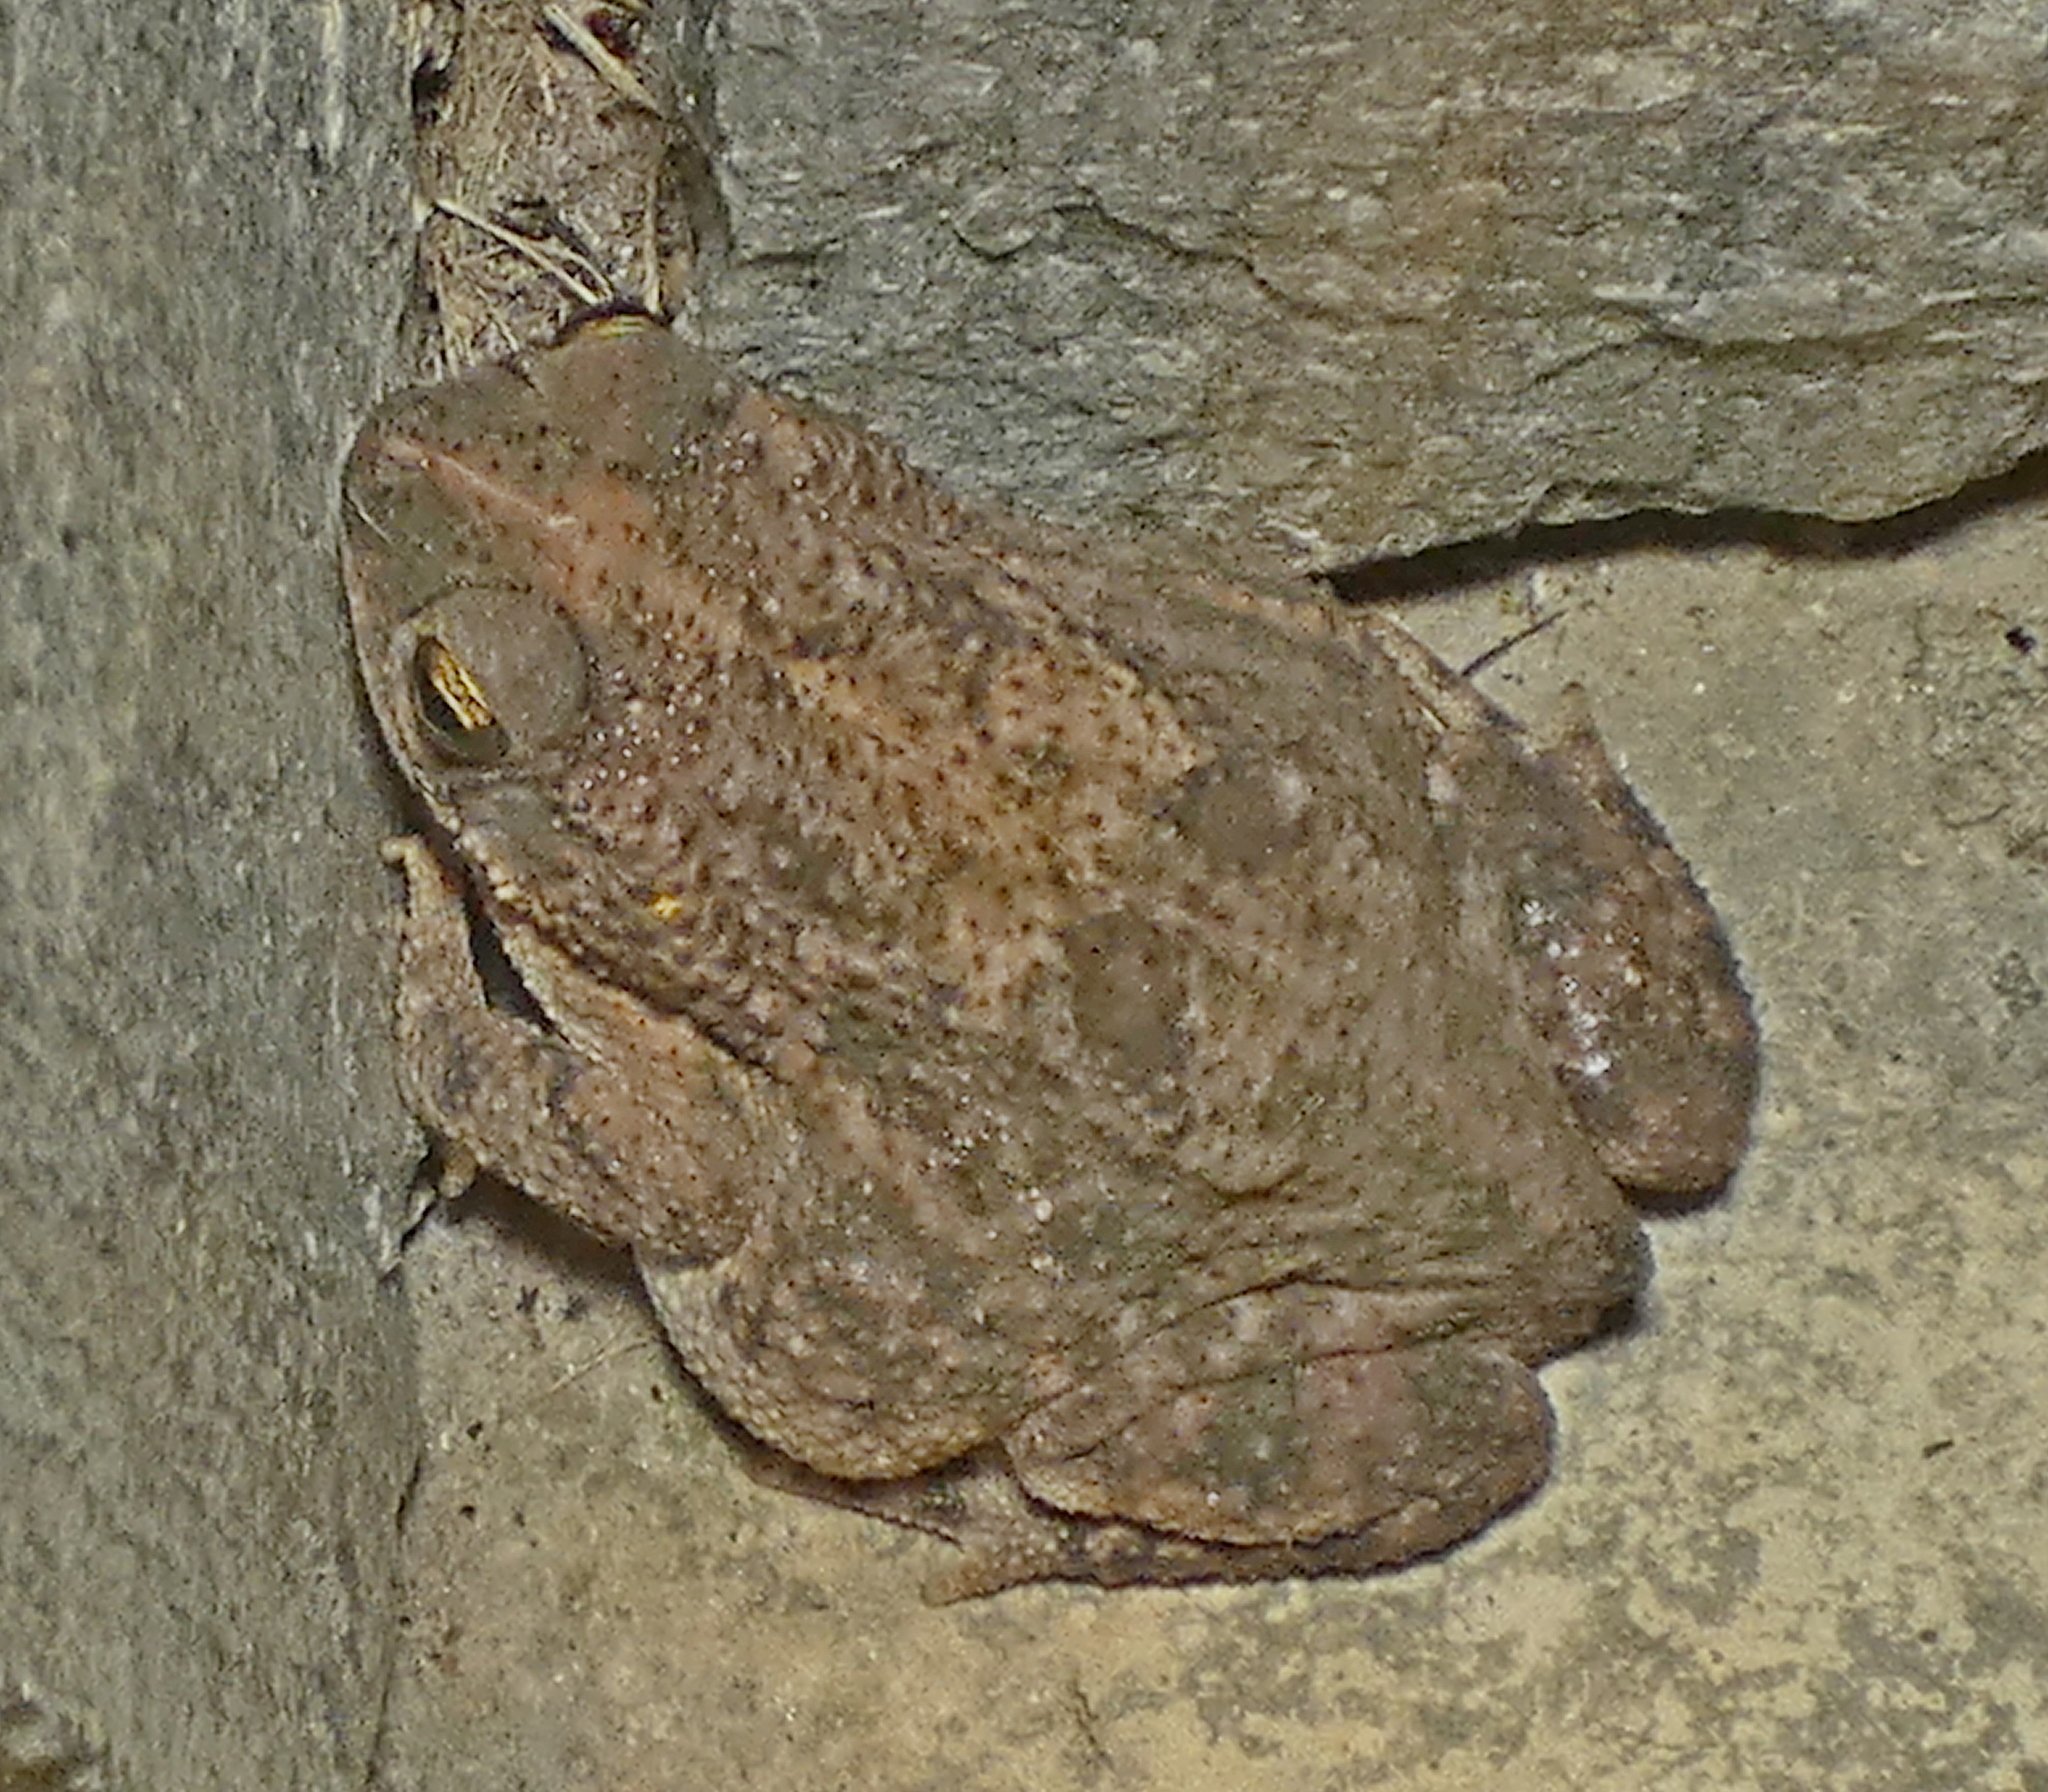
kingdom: Animalia
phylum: Chordata
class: Amphibia
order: Anura
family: Bufonidae
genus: Rhinella
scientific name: Rhinella granulosa
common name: Common lesser toad
